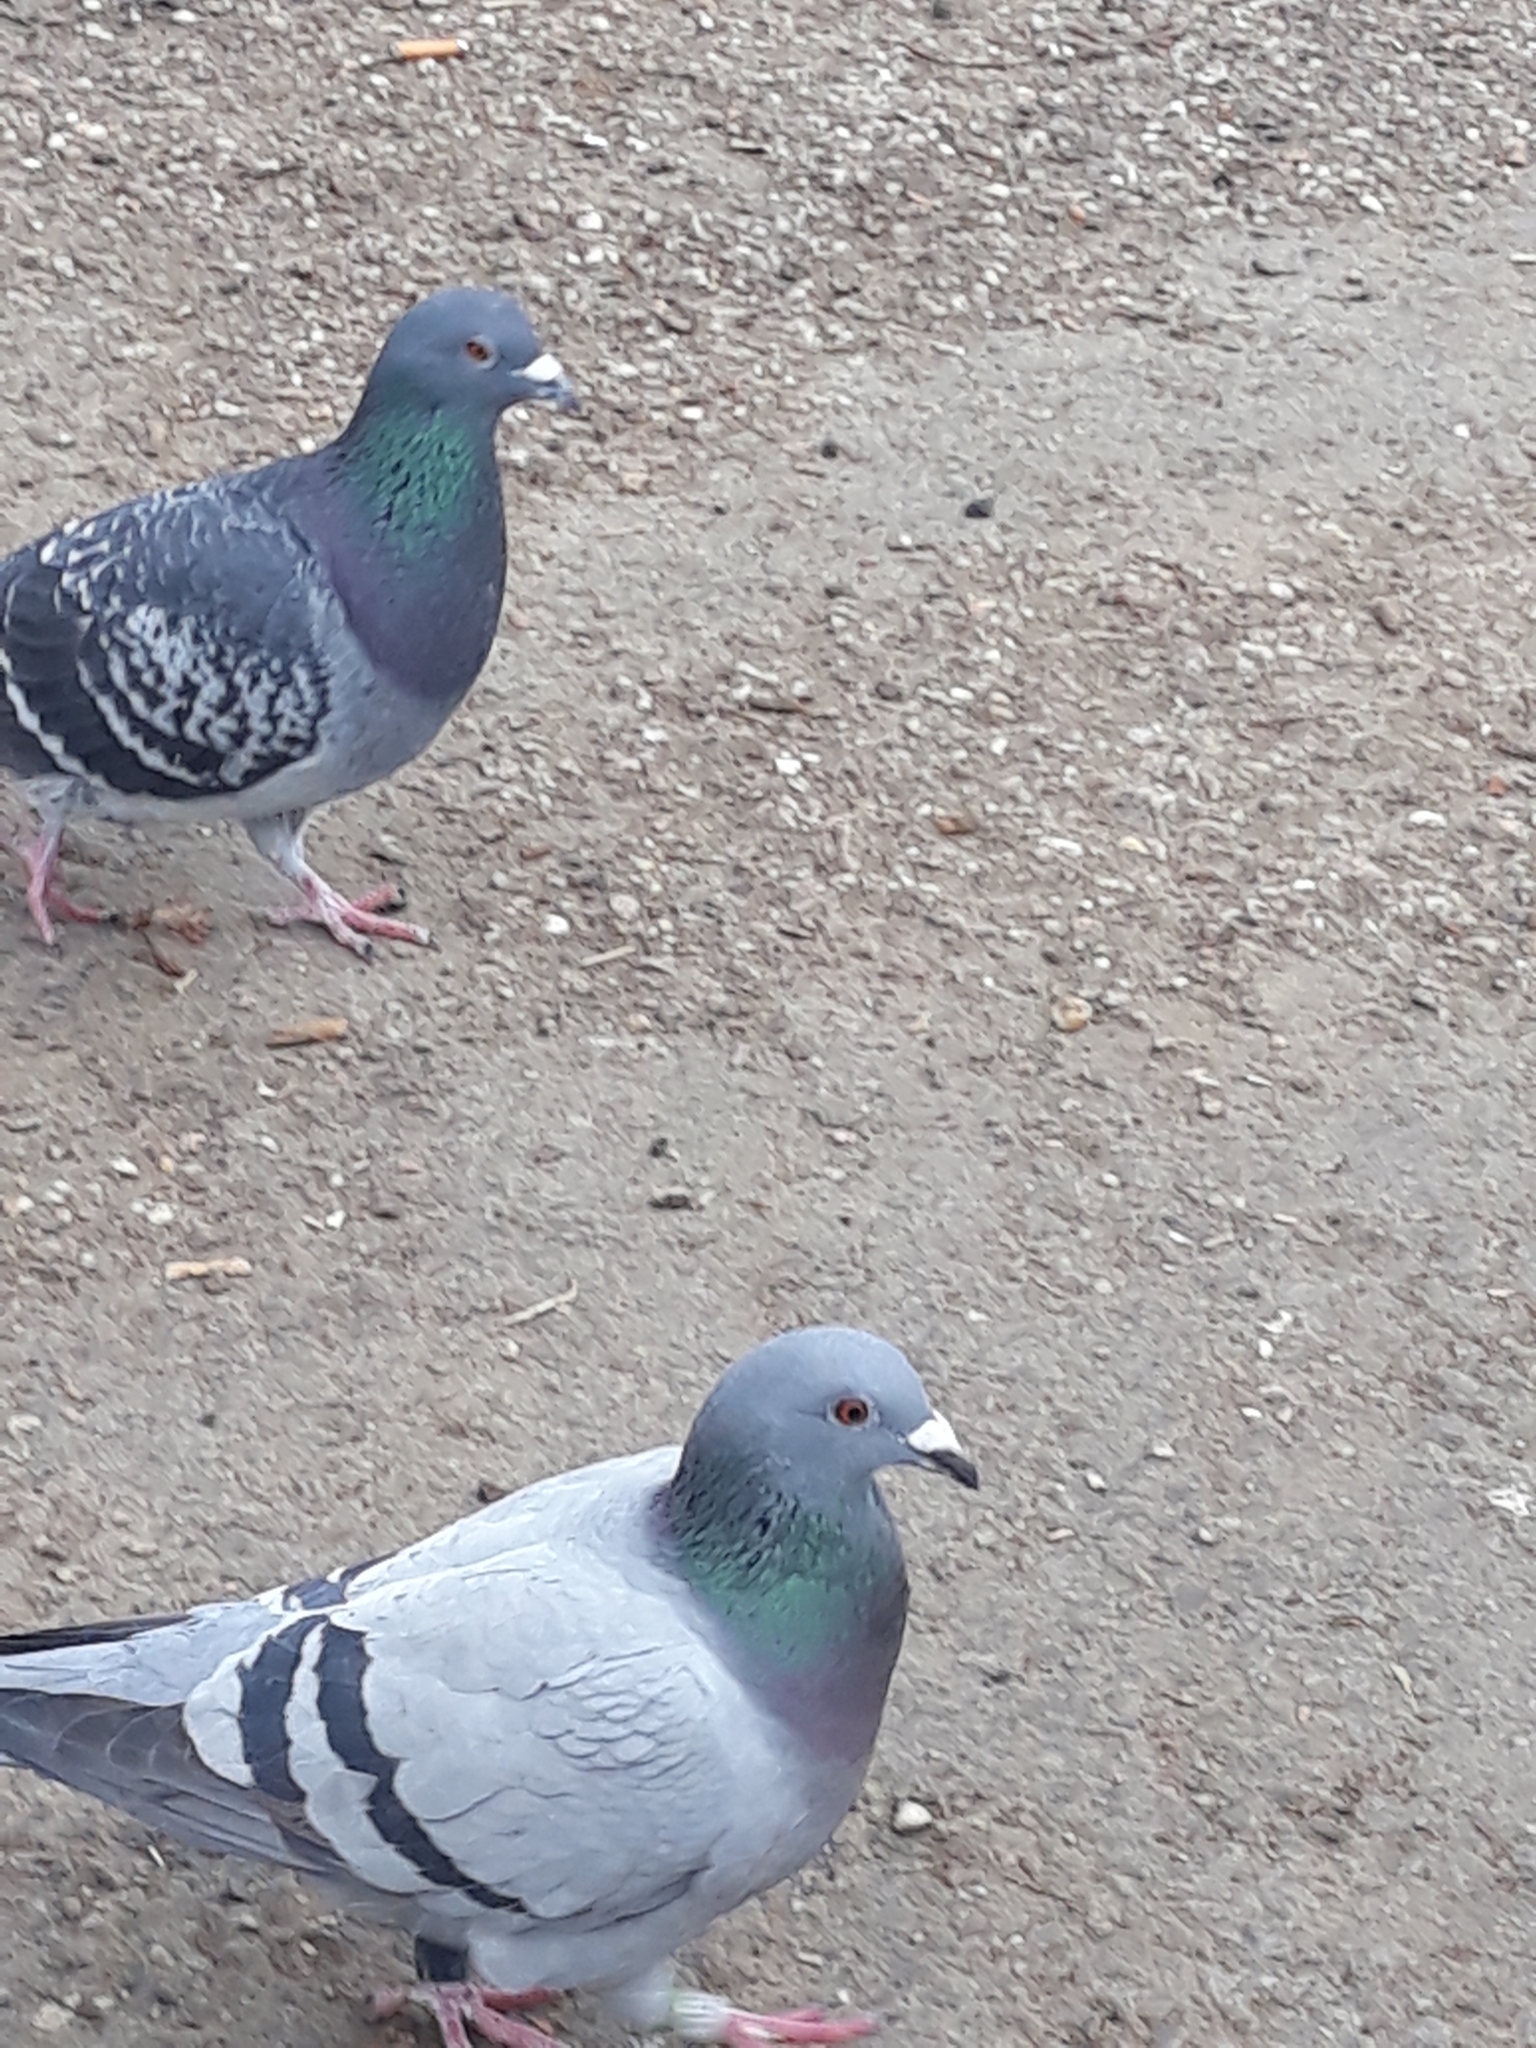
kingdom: Animalia
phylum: Chordata
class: Aves
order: Columbiformes
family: Columbidae
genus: Columba
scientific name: Columba livia
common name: Rock pigeon
